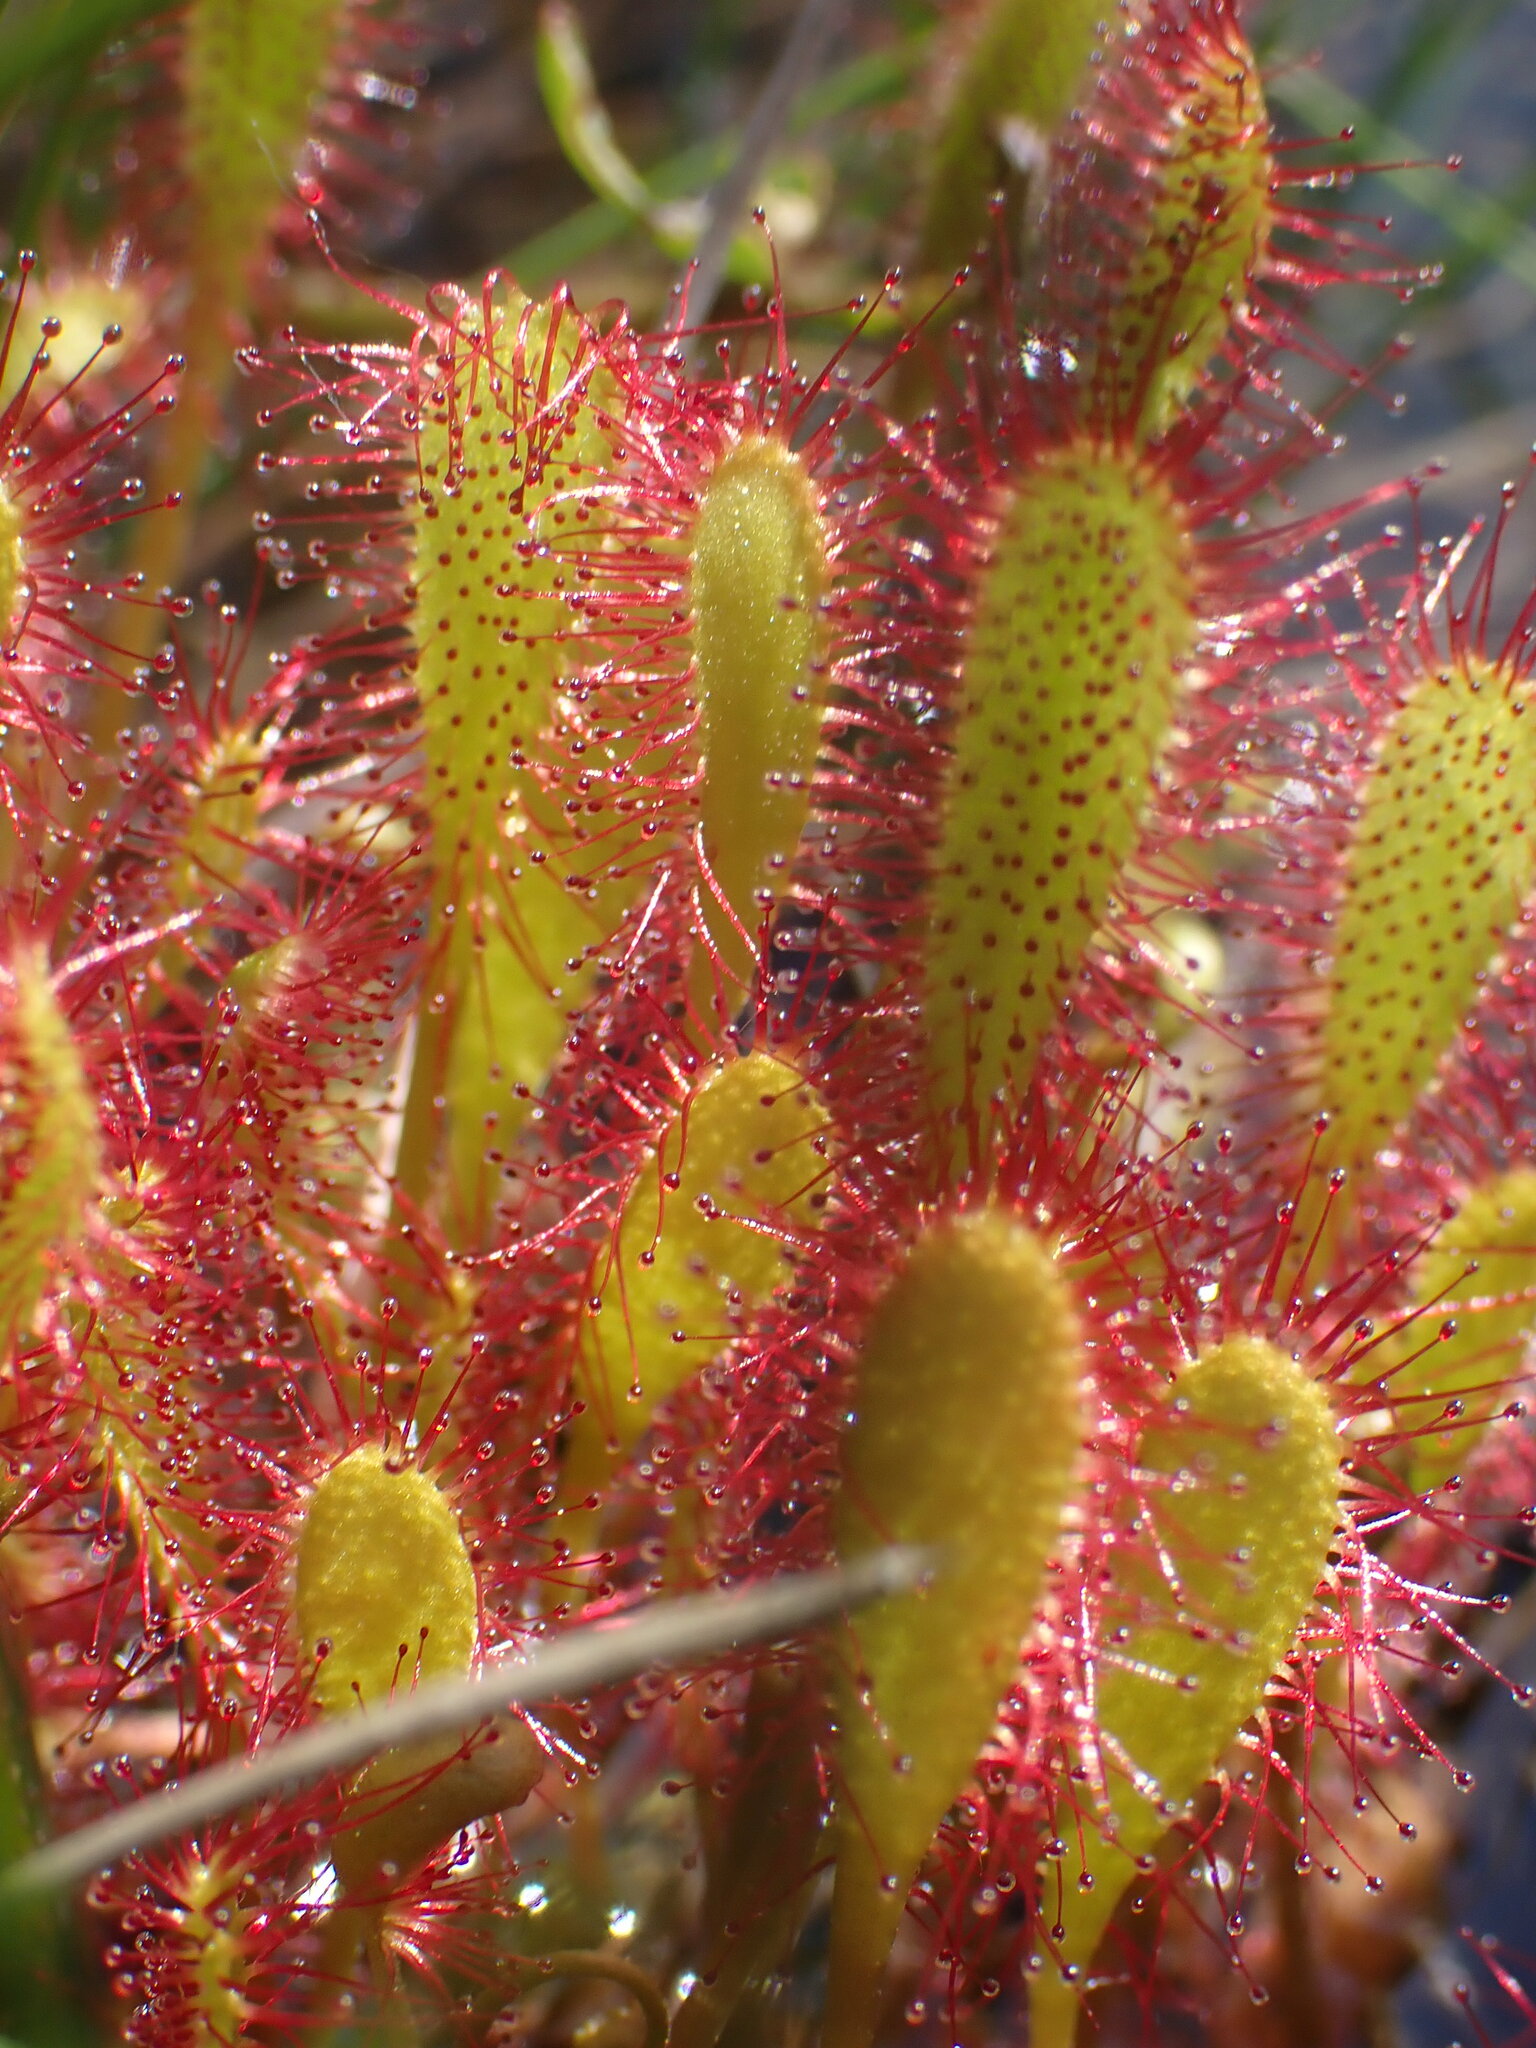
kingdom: Plantae
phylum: Tracheophyta
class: Magnoliopsida
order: Caryophyllales
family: Droseraceae
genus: Drosera
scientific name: Drosera anglica
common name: Great sundew
